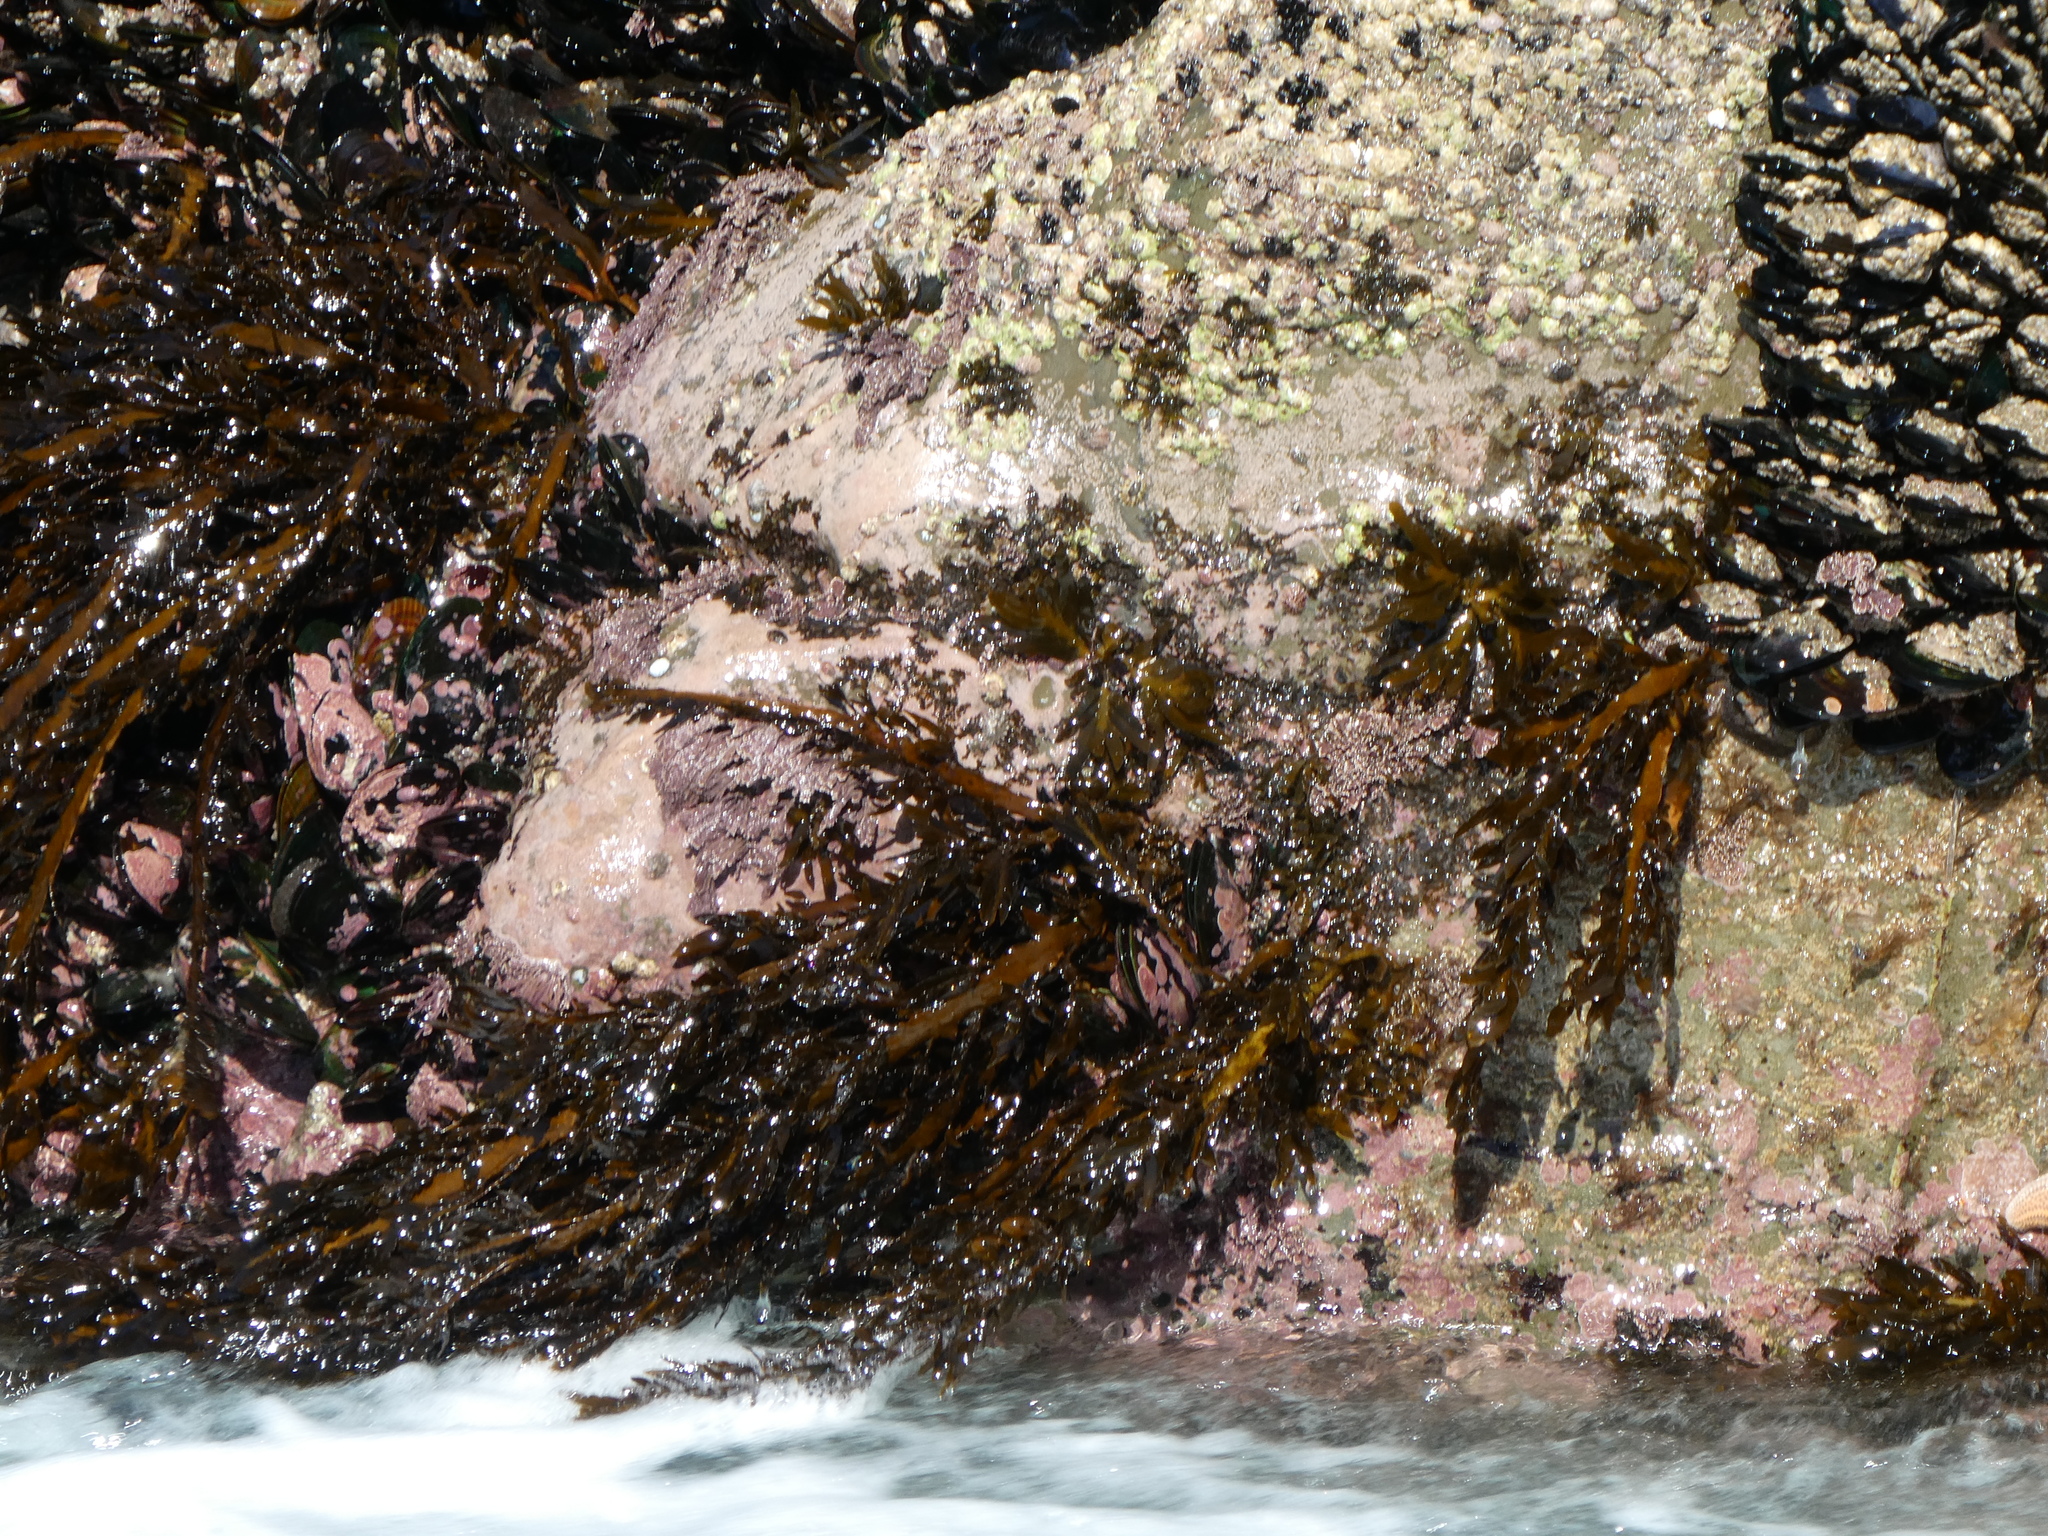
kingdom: Chromista
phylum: Ochrophyta
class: Phaeophyceae
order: Fucales
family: Sargassaceae
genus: Carpophyllum
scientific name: Carpophyllum maschalocarpum
